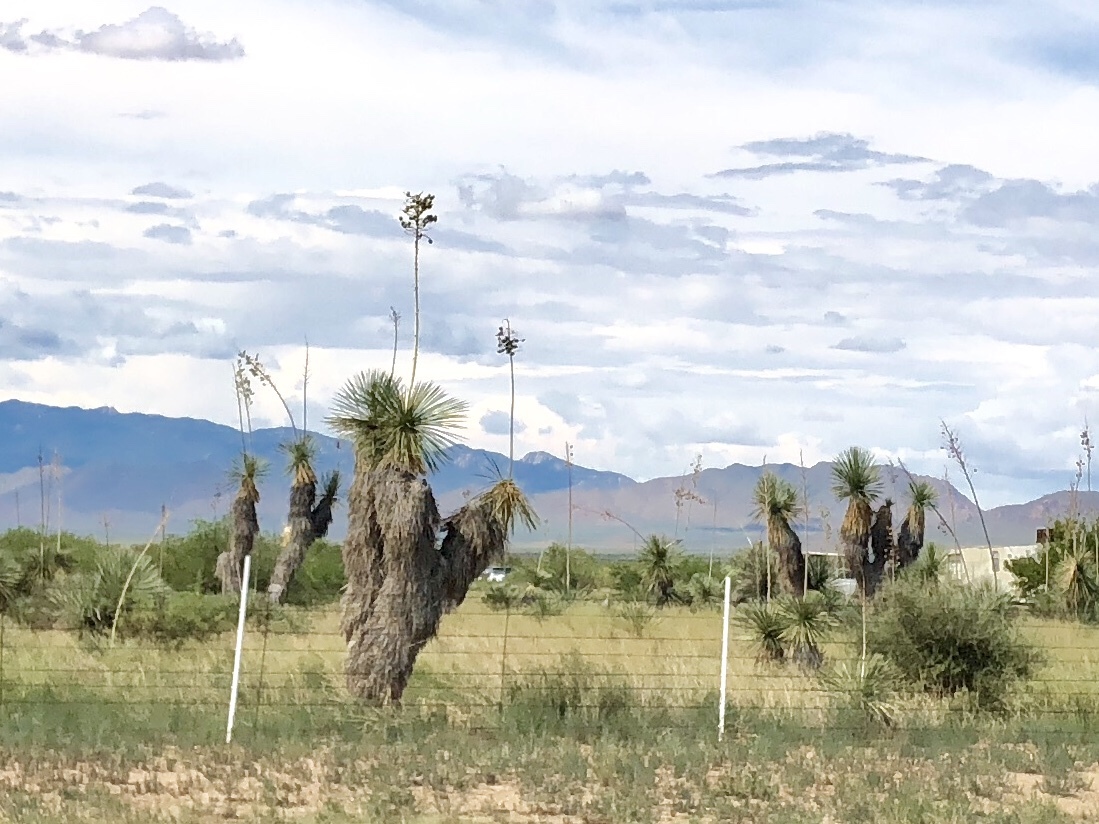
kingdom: Plantae
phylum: Tracheophyta
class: Liliopsida
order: Asparagales
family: Asparagaceae
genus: Yucca
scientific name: Yucca elata
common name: Palmella
